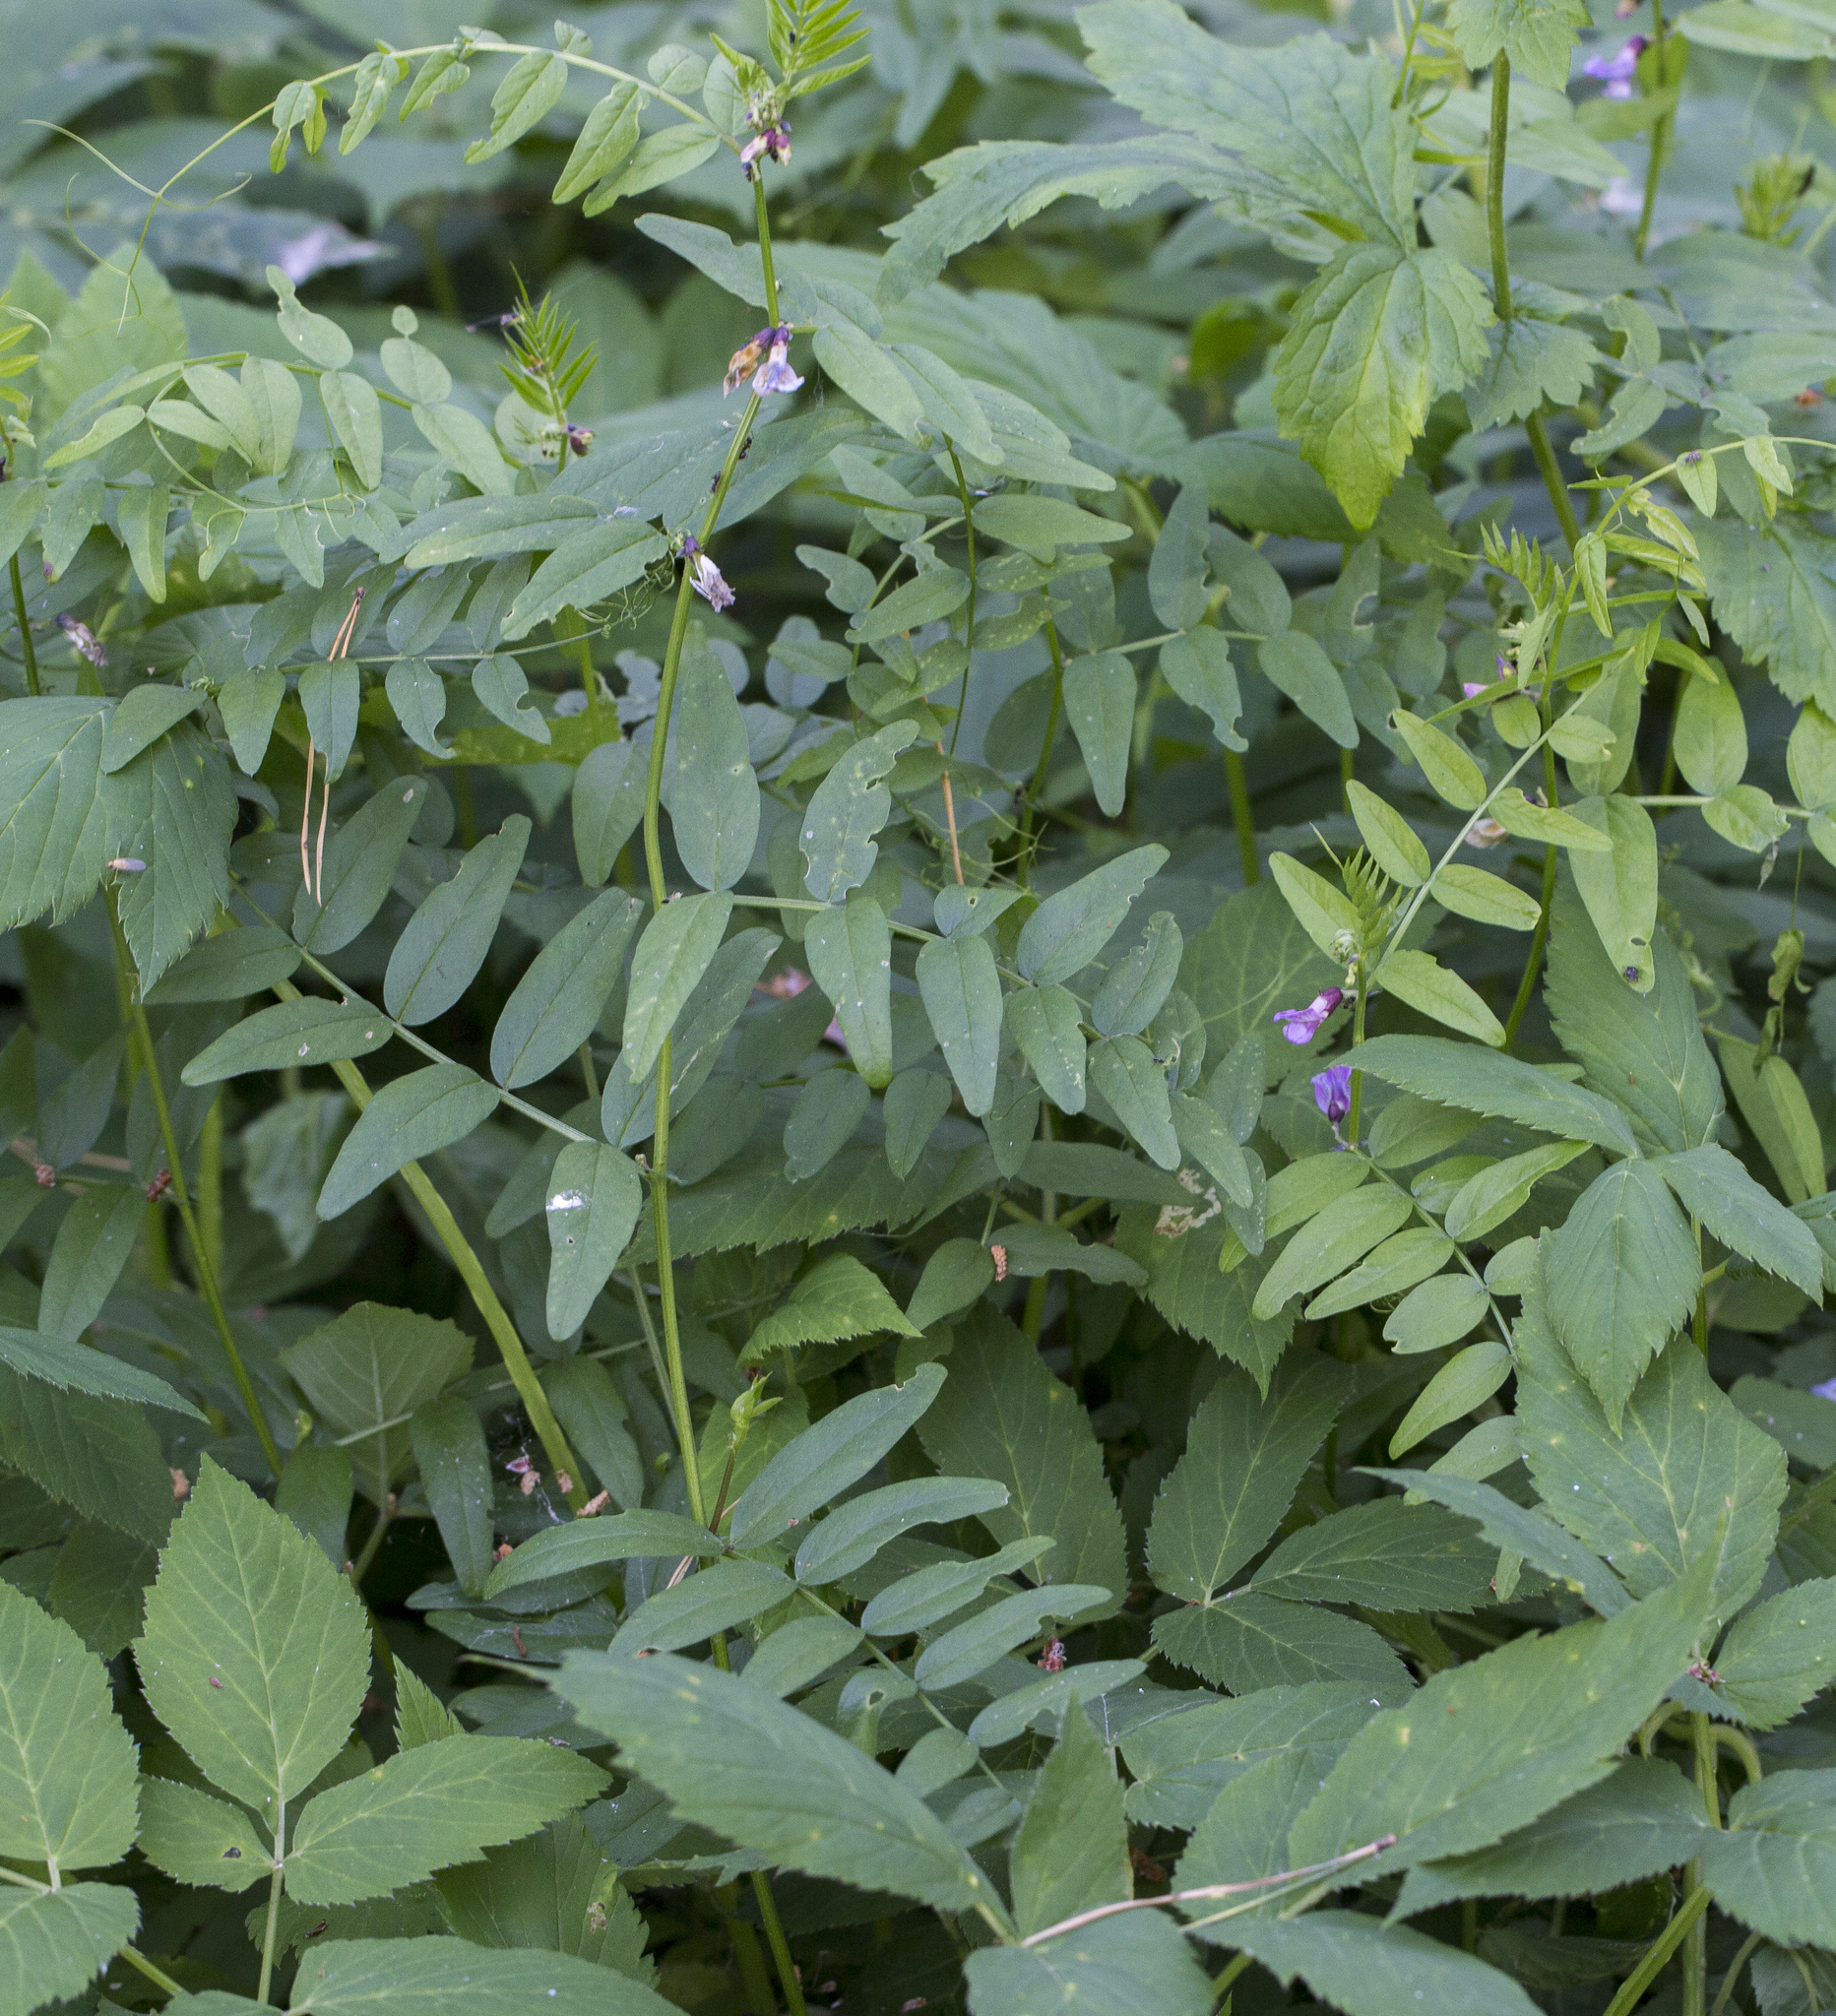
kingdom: Plantae
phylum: Tracheophyta
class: Magnoliopsida
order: Fabales
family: Fabaceae
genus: Vicia
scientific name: Vicia sepium
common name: Bush vetch
